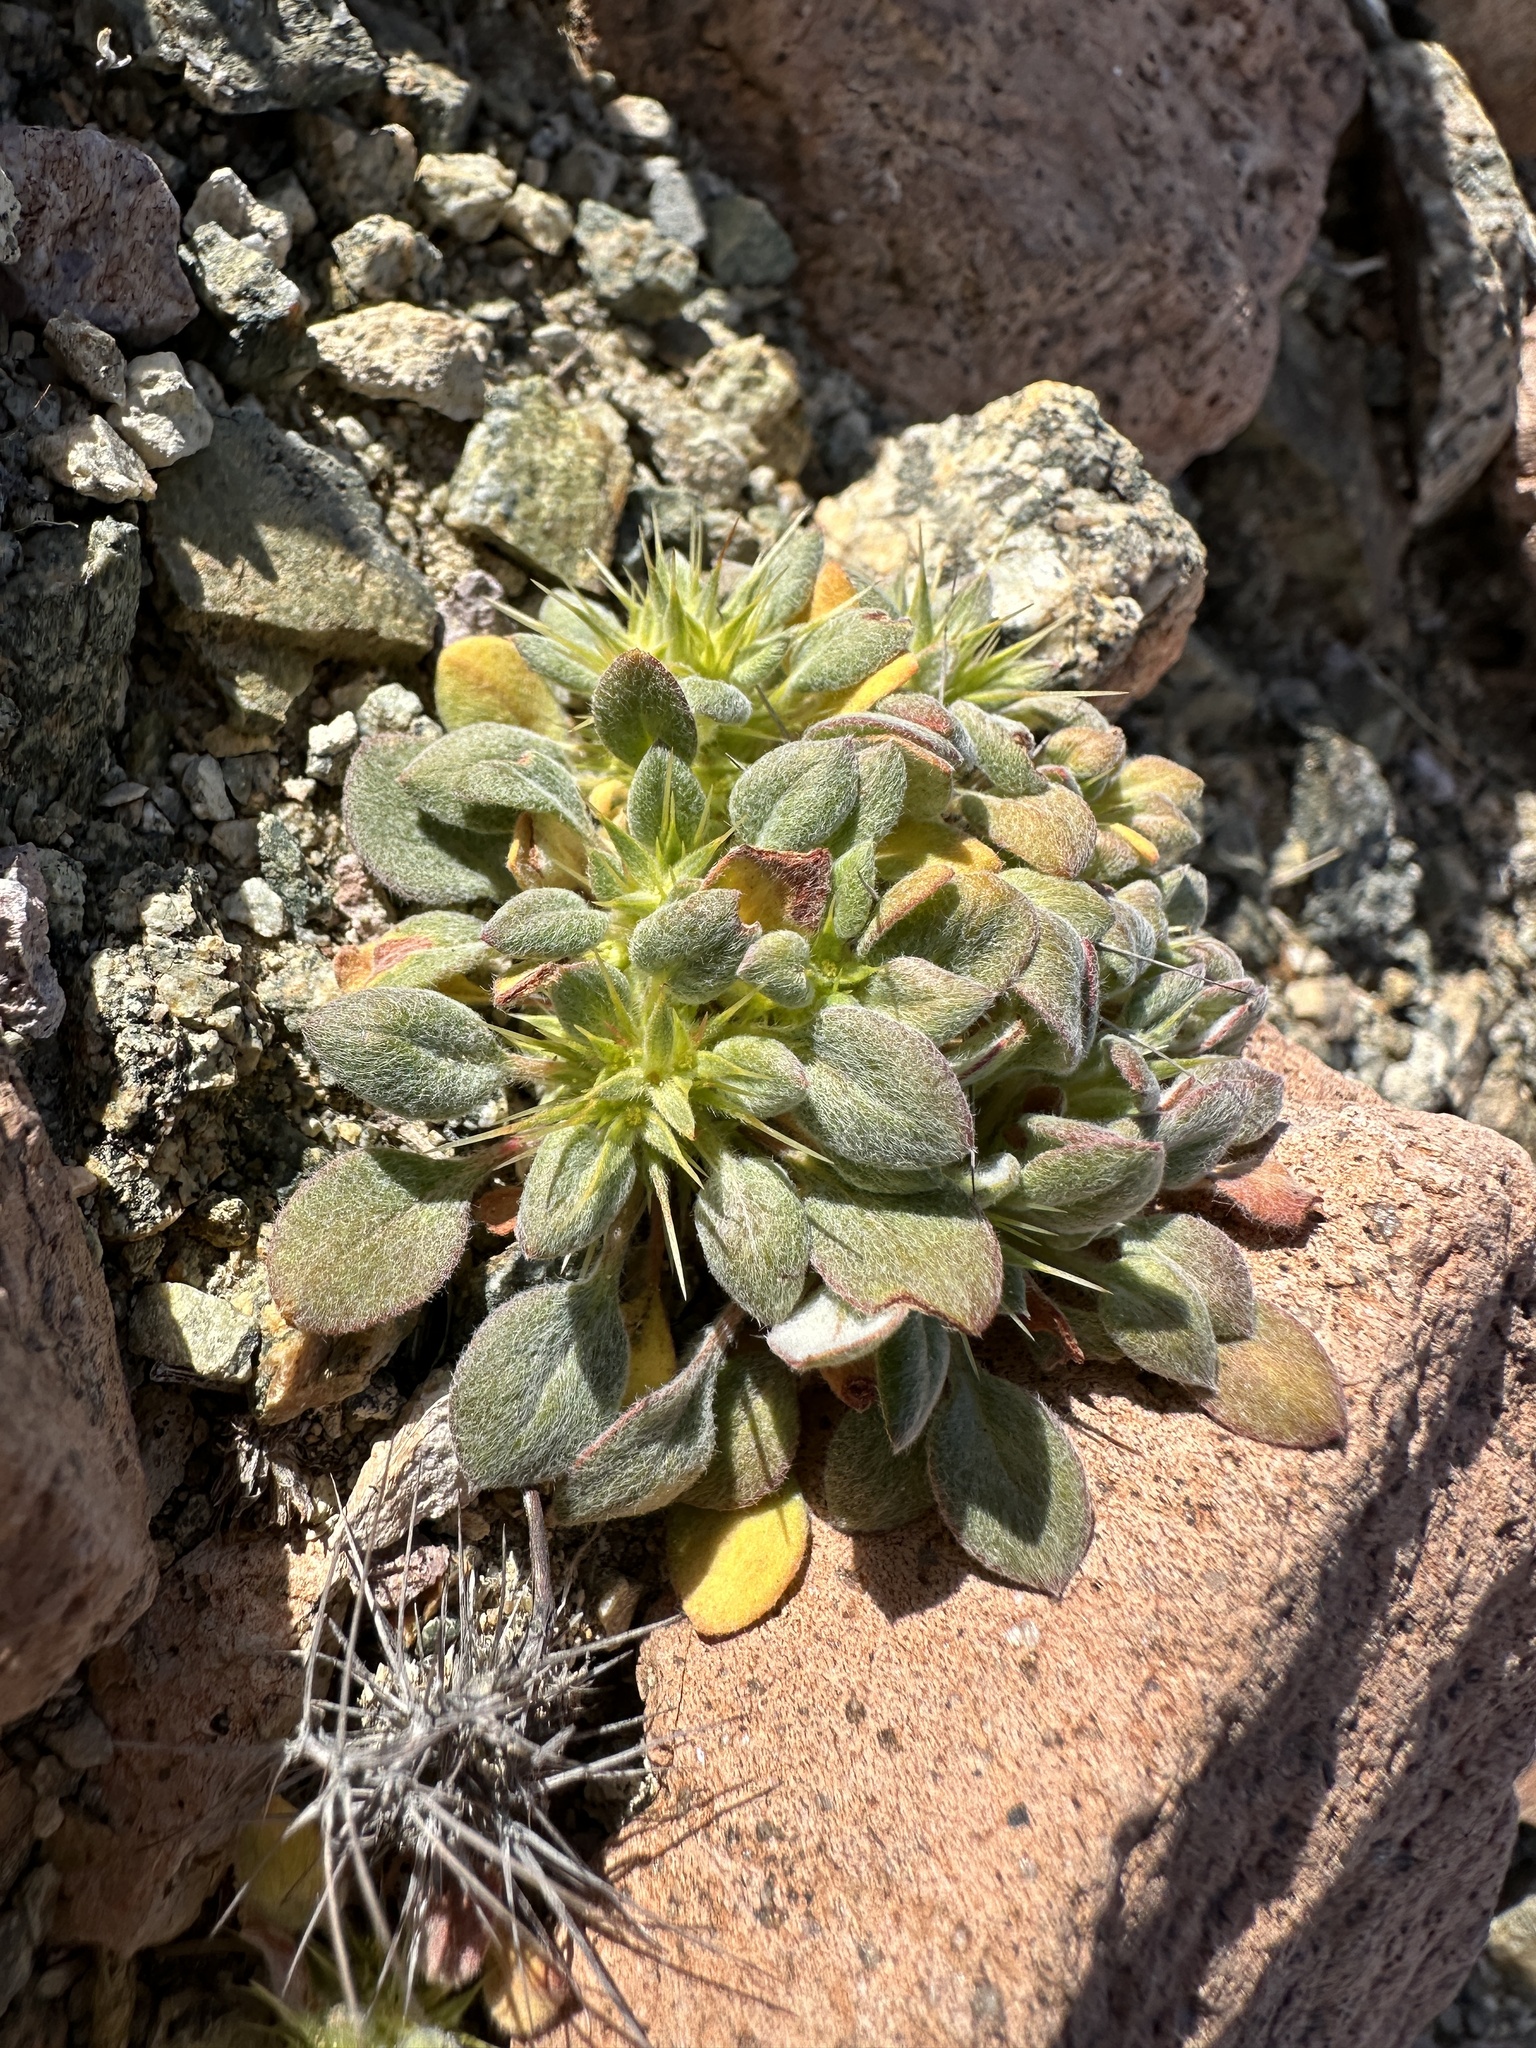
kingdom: Plantae
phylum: Tracheophyta
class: Magnoliopsida
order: Caryophyllales
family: Polygonaceae
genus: Chorizanthe
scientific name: Chorizanthe rigida
